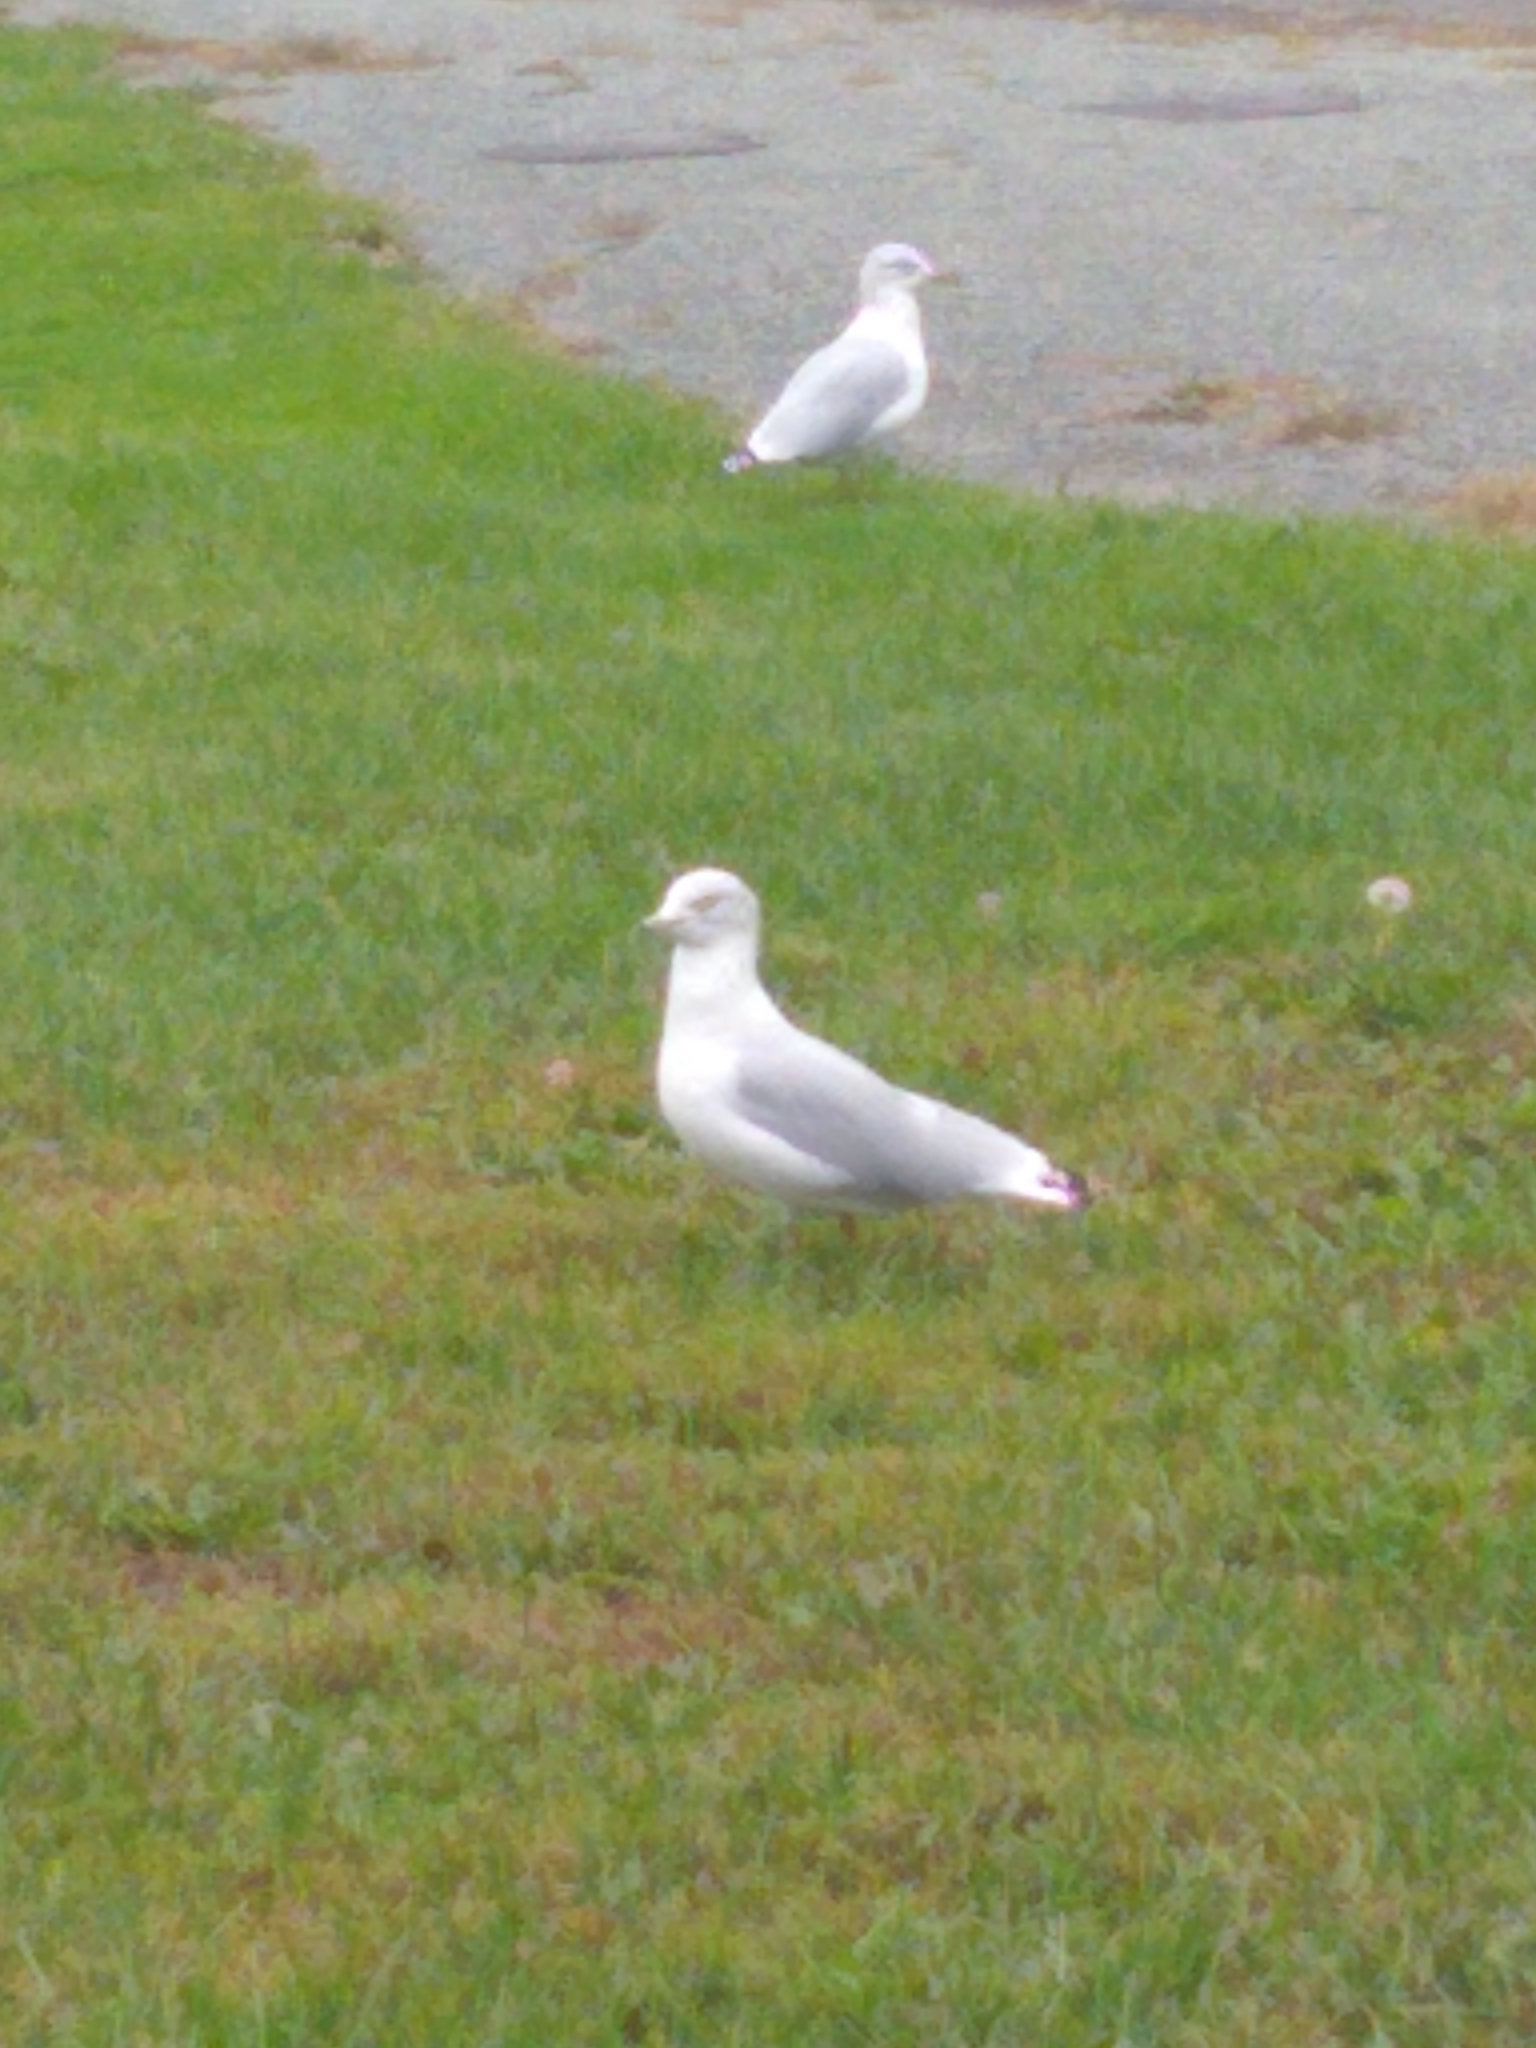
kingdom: Animalia
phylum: Chordata
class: Aves
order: Charadriiformes
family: Laridae
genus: Larus
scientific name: Larus delawarensis
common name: Ring-billed gull
